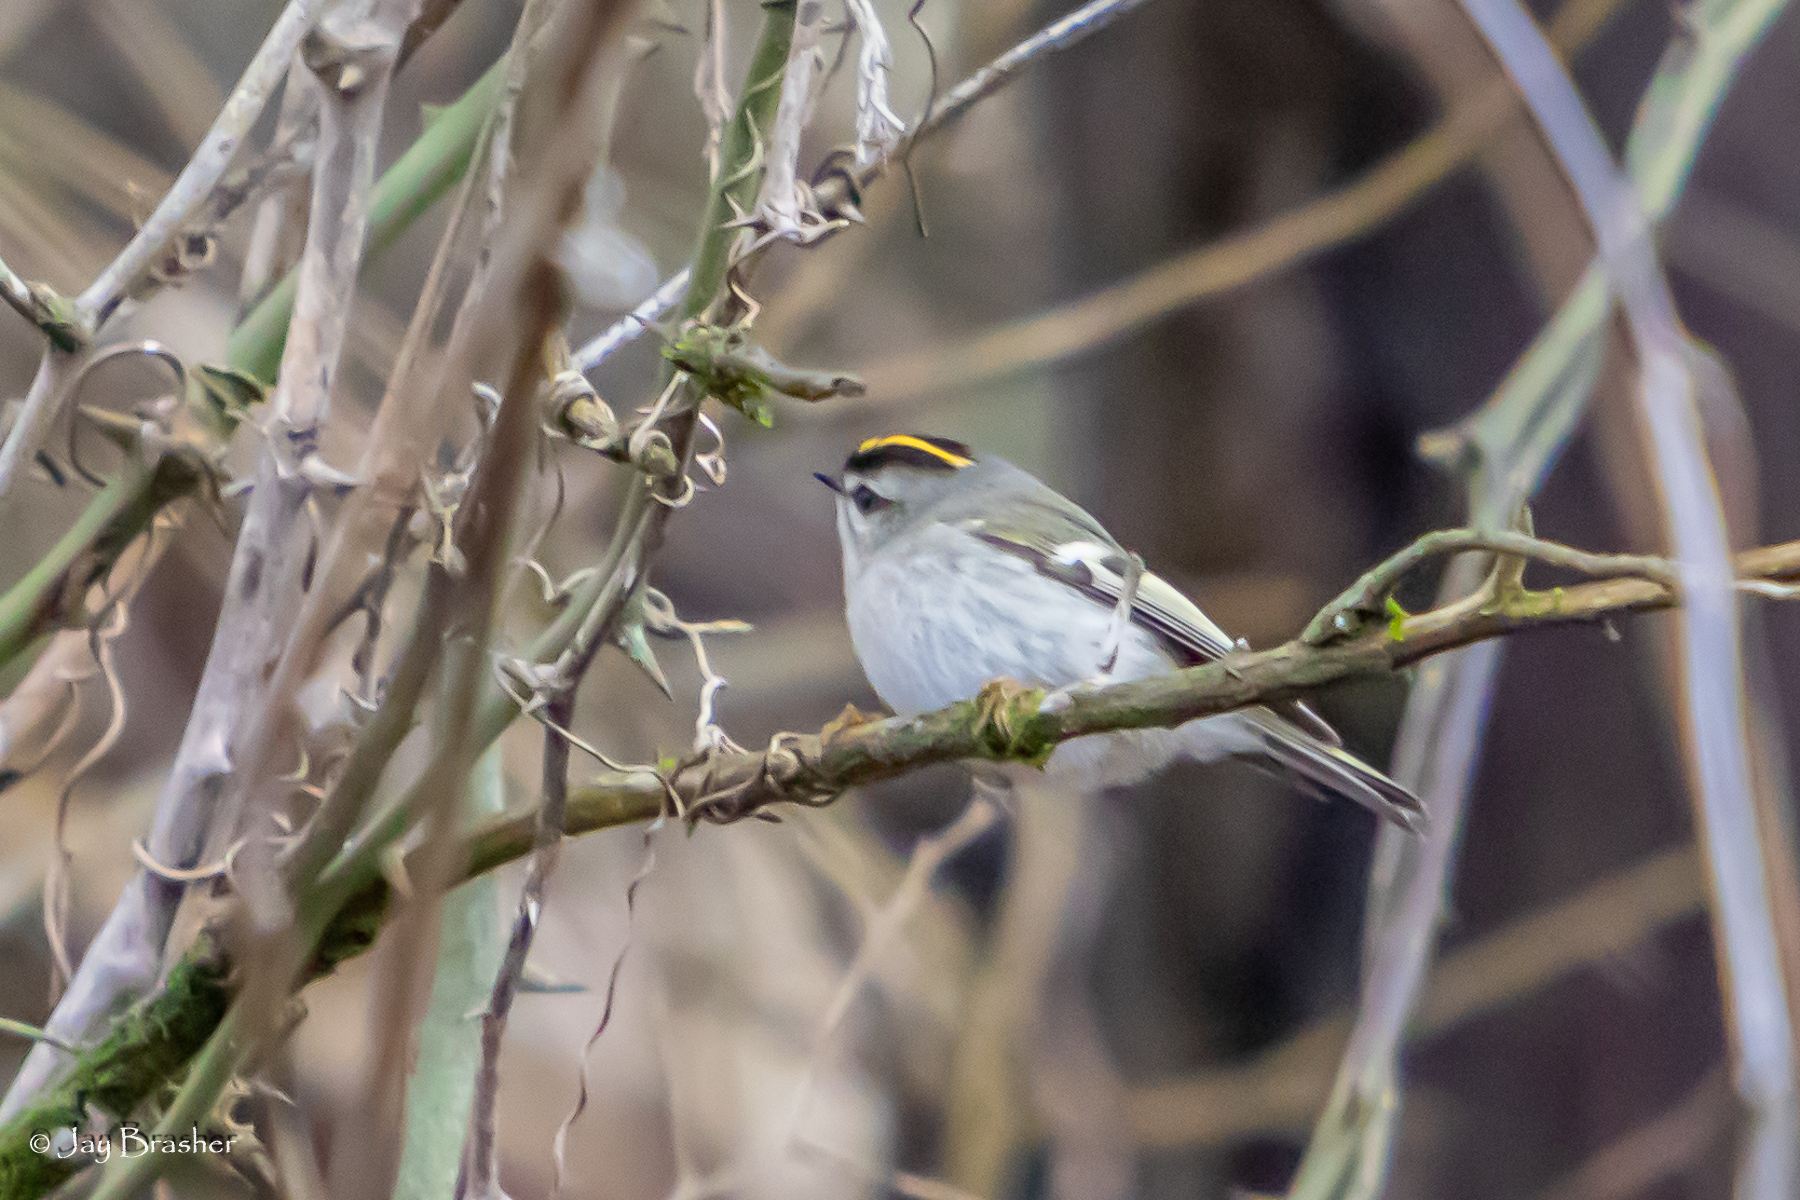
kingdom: Animalia
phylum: Chordata
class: Aves
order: Passeriformes
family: Regulidae
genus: Regulus
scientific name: Regulus satrapa
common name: Golden-crowned kinglet
